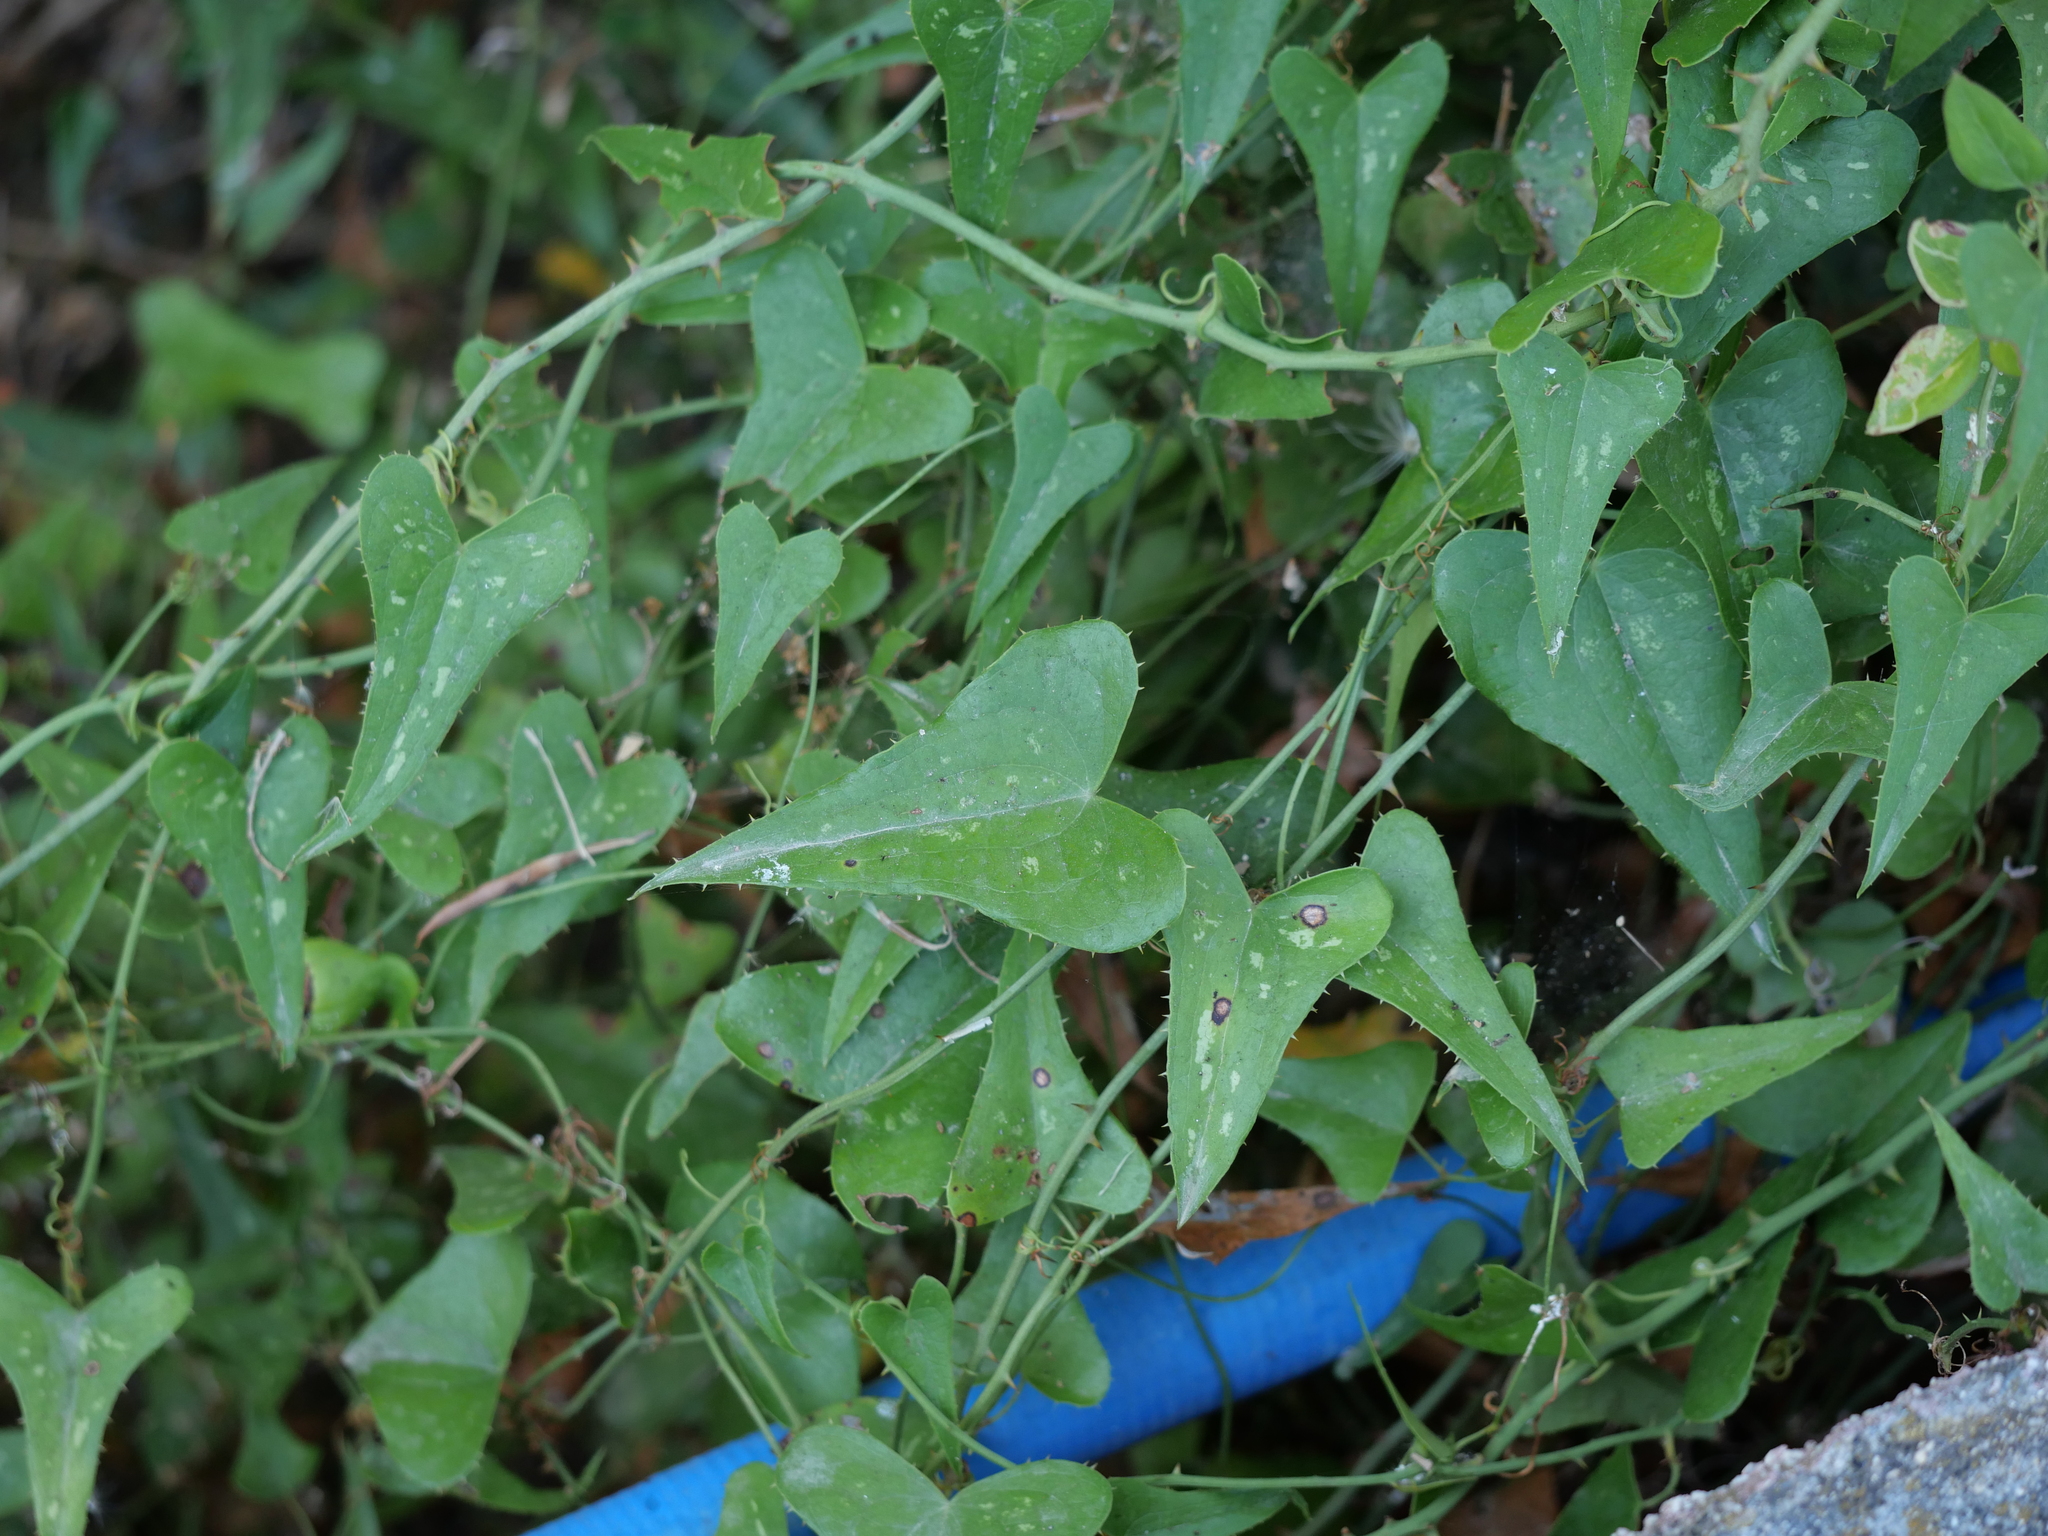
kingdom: Plantae
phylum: Tracheophyta
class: Liliopsida
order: Liliales
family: Smilacaceae
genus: Smilax
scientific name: Smilax aspera
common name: Common smilax
